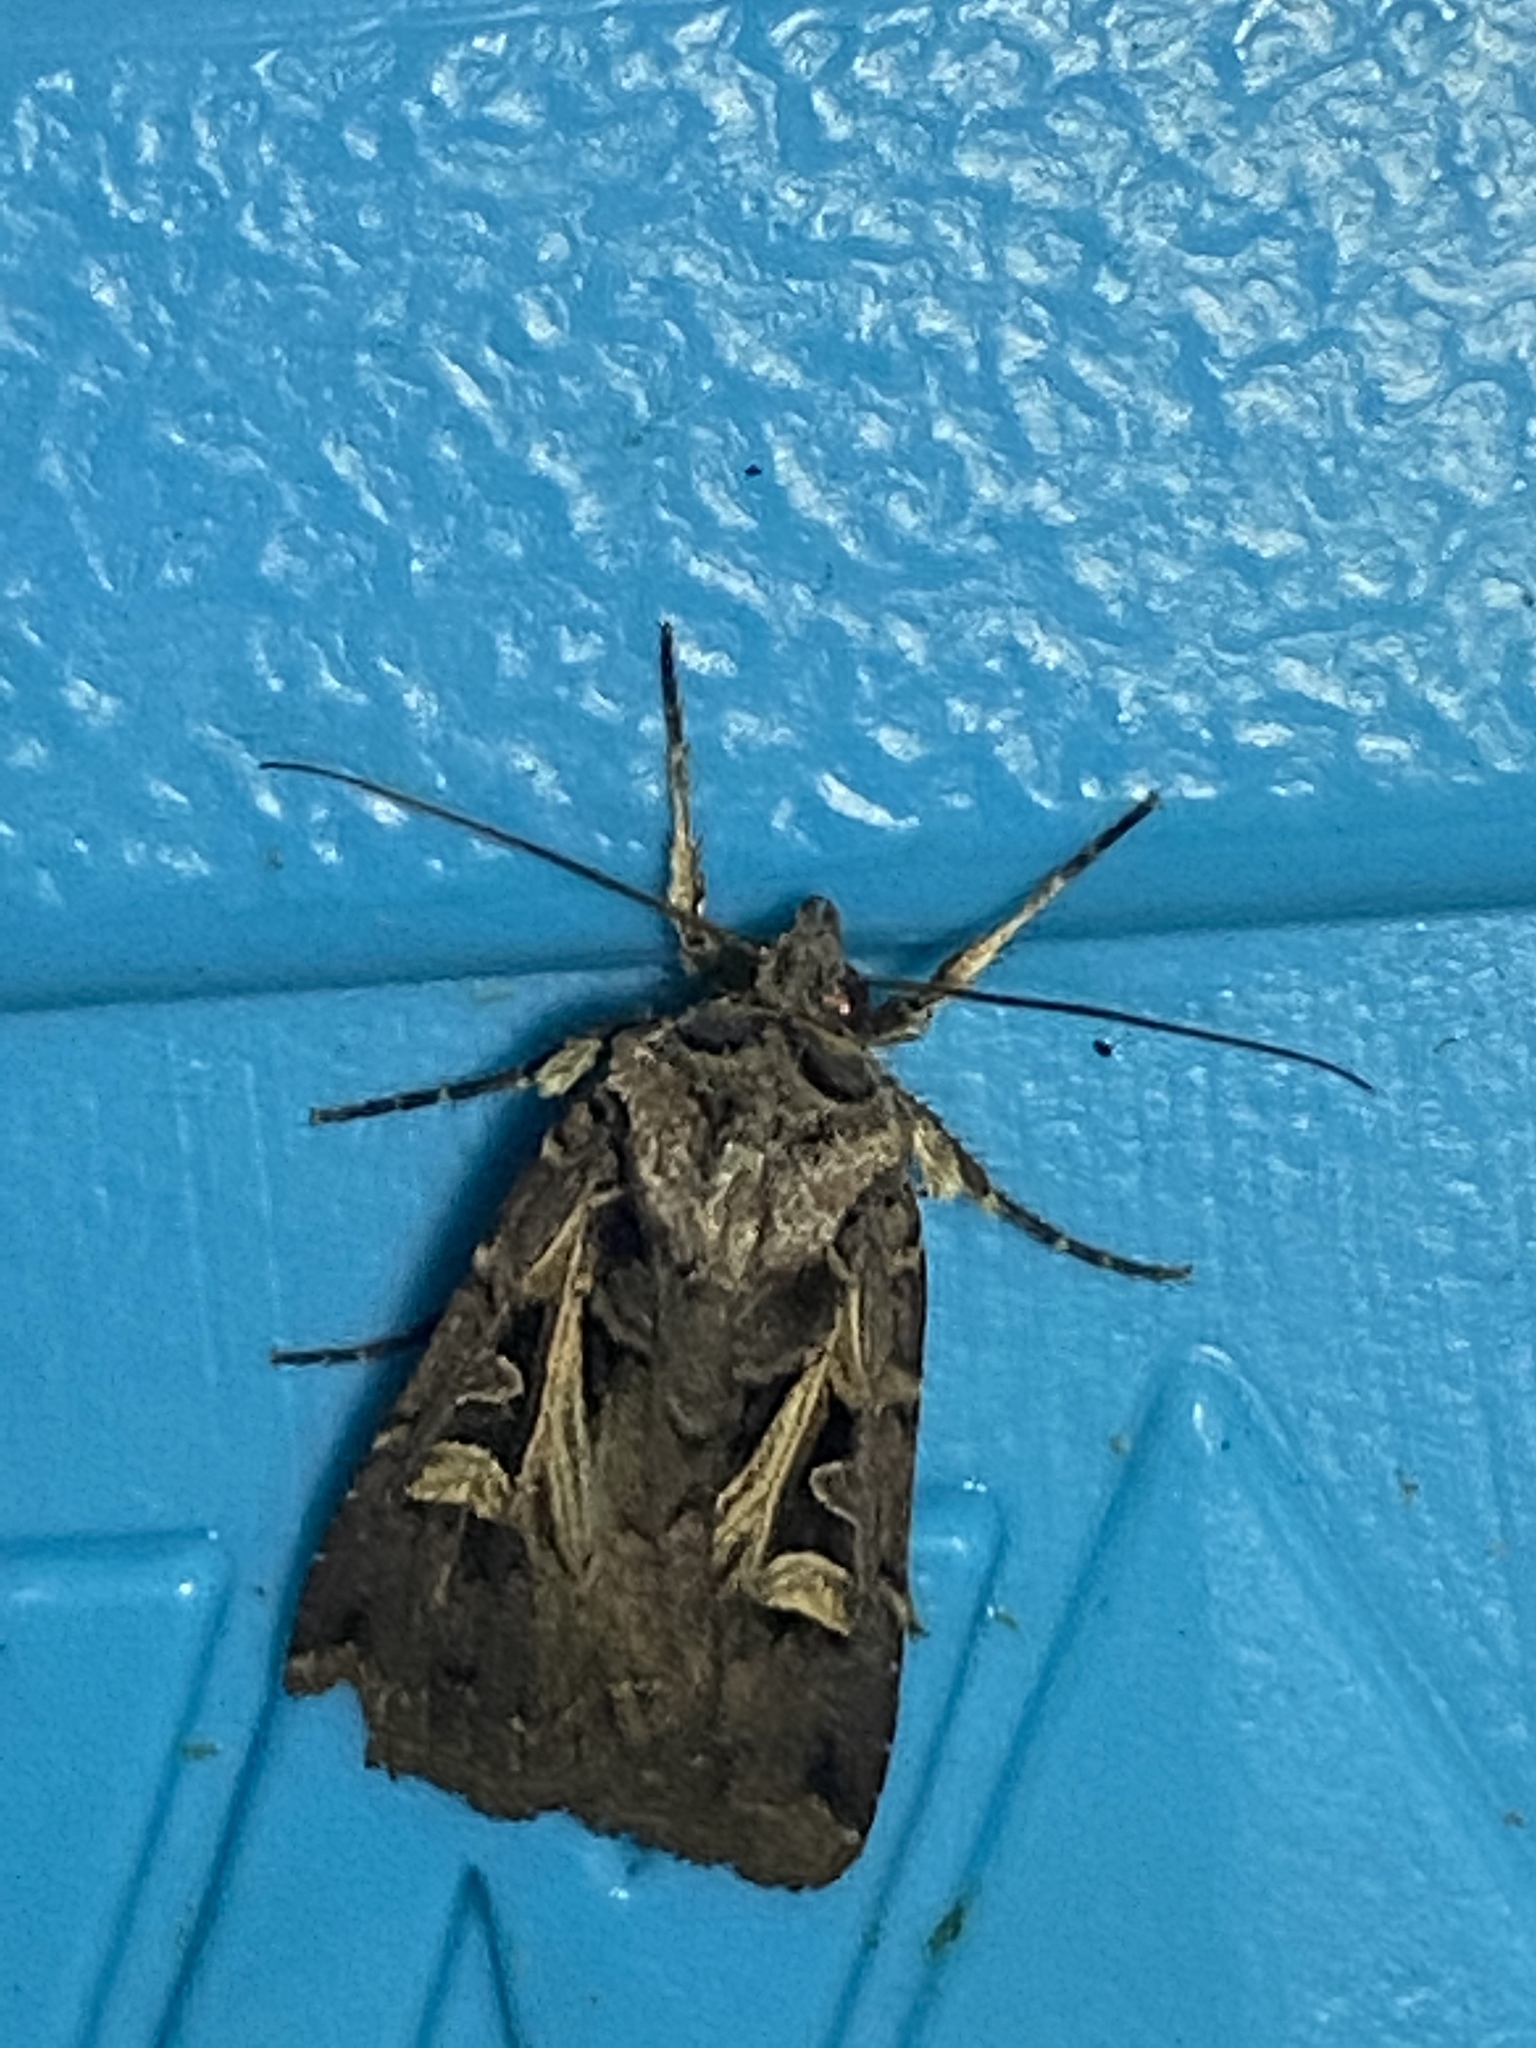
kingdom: Animalia
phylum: Arthropoda
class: Insecta
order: Lepidoptera
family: Noctuidae
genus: Feltia
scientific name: Feltia herilis
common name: Master's dart
